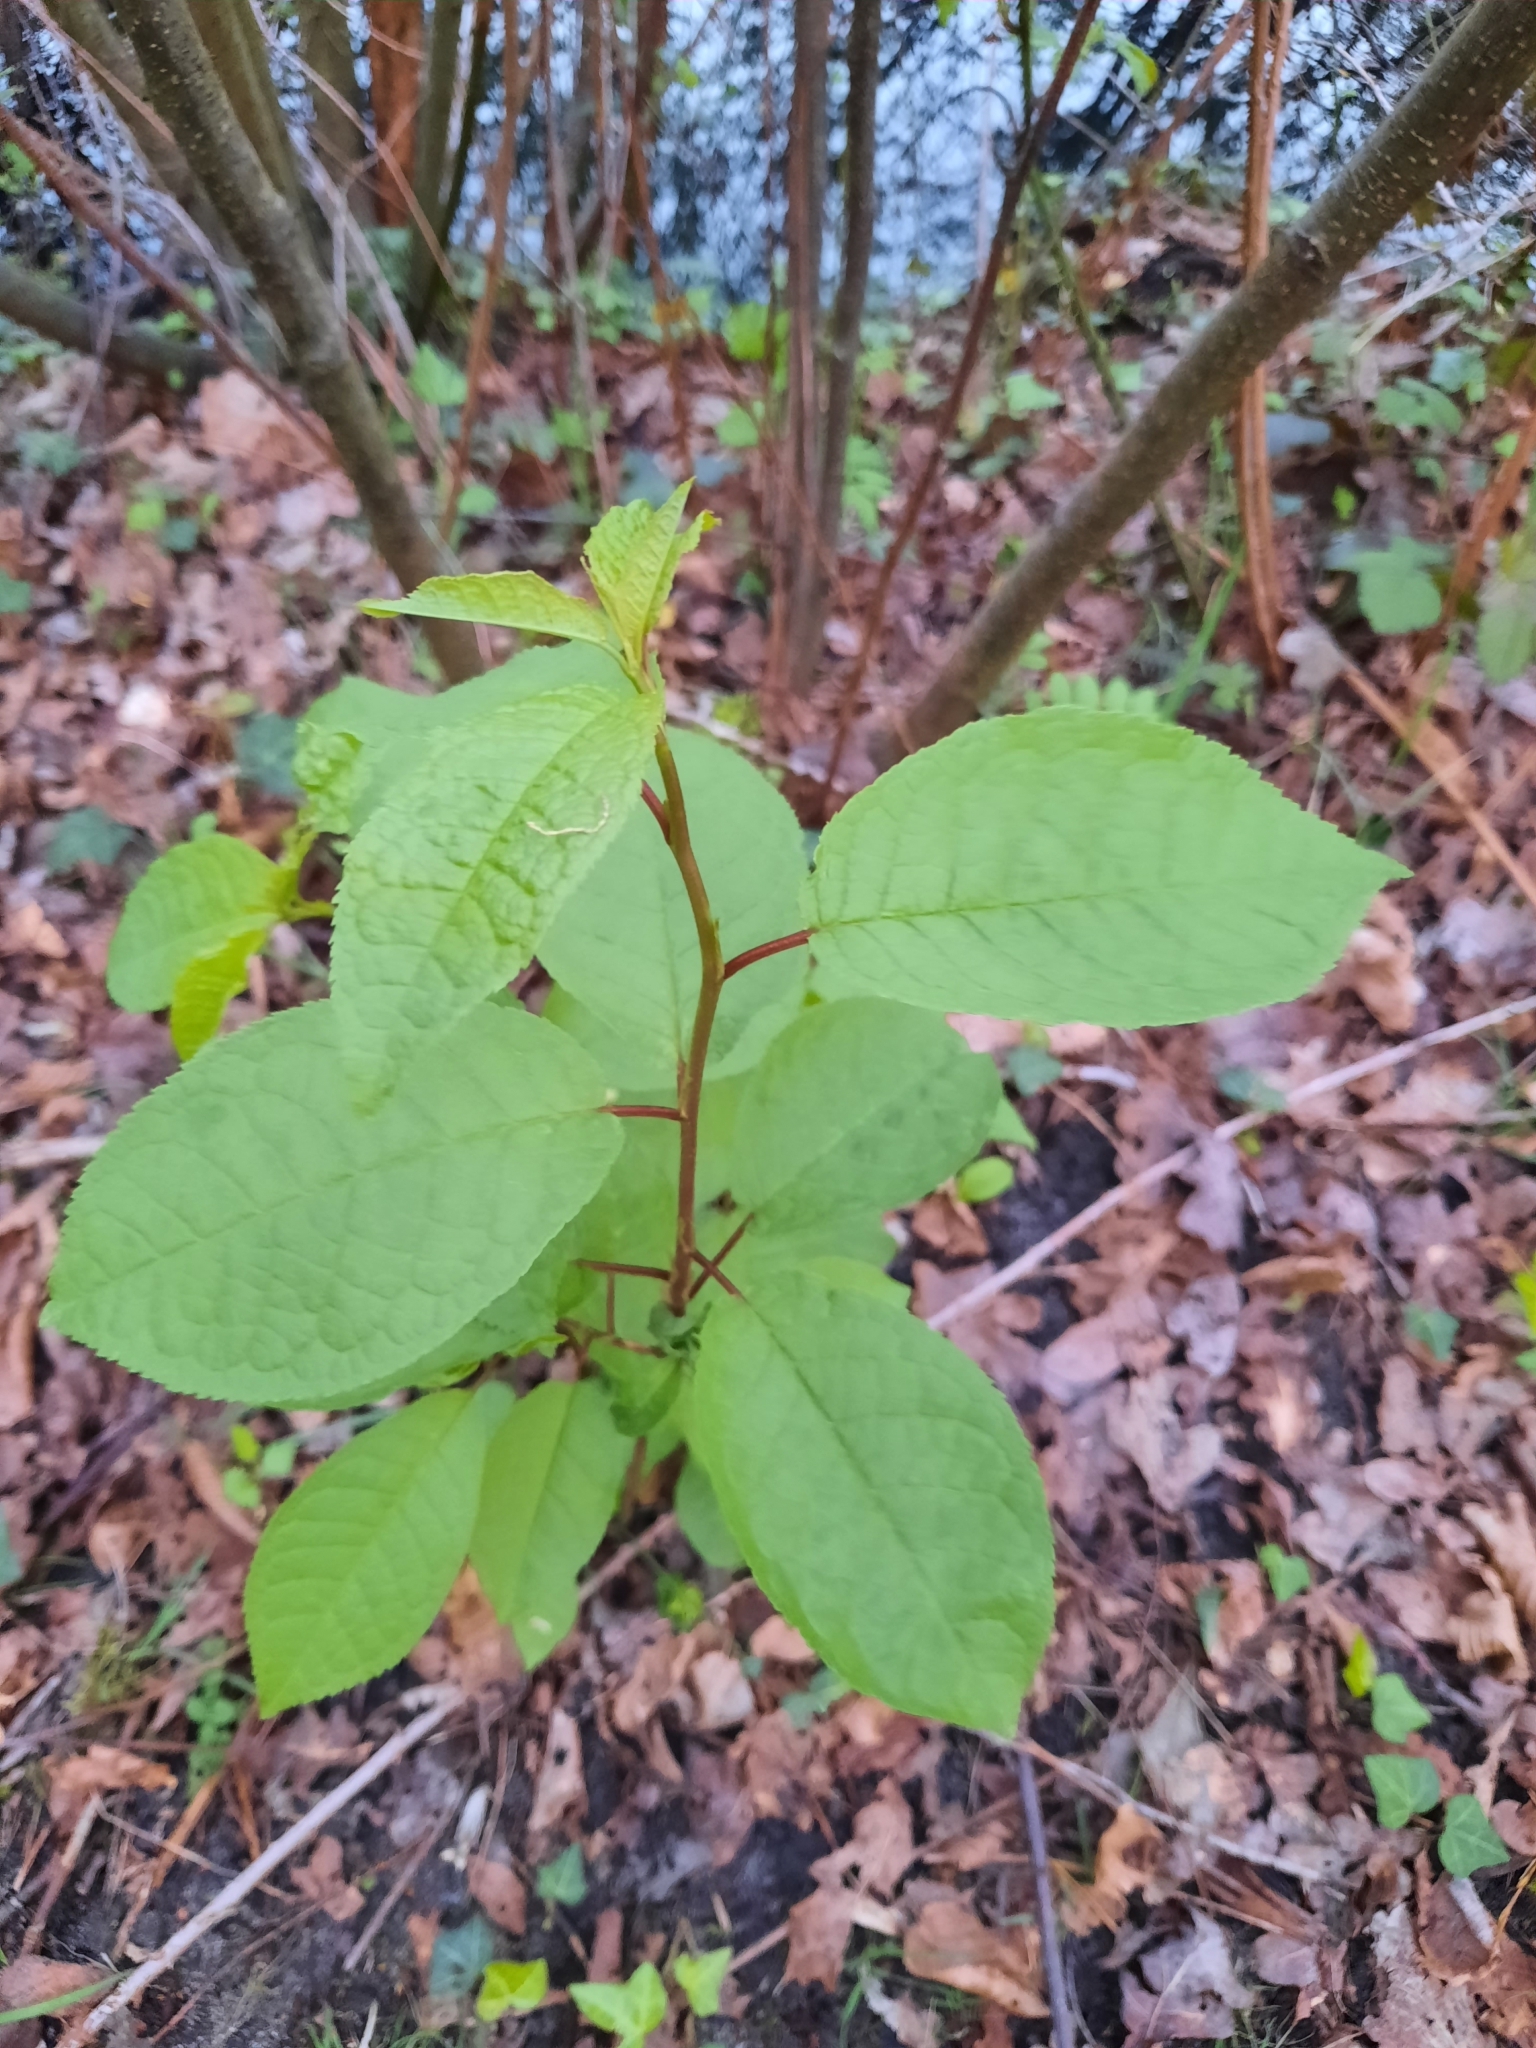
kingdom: Plantae
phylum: Tracheophyta
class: Magnoliopsida
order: Rosales
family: Rosaceae
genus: Prunus
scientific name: Prunus padus
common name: Bird cherry
